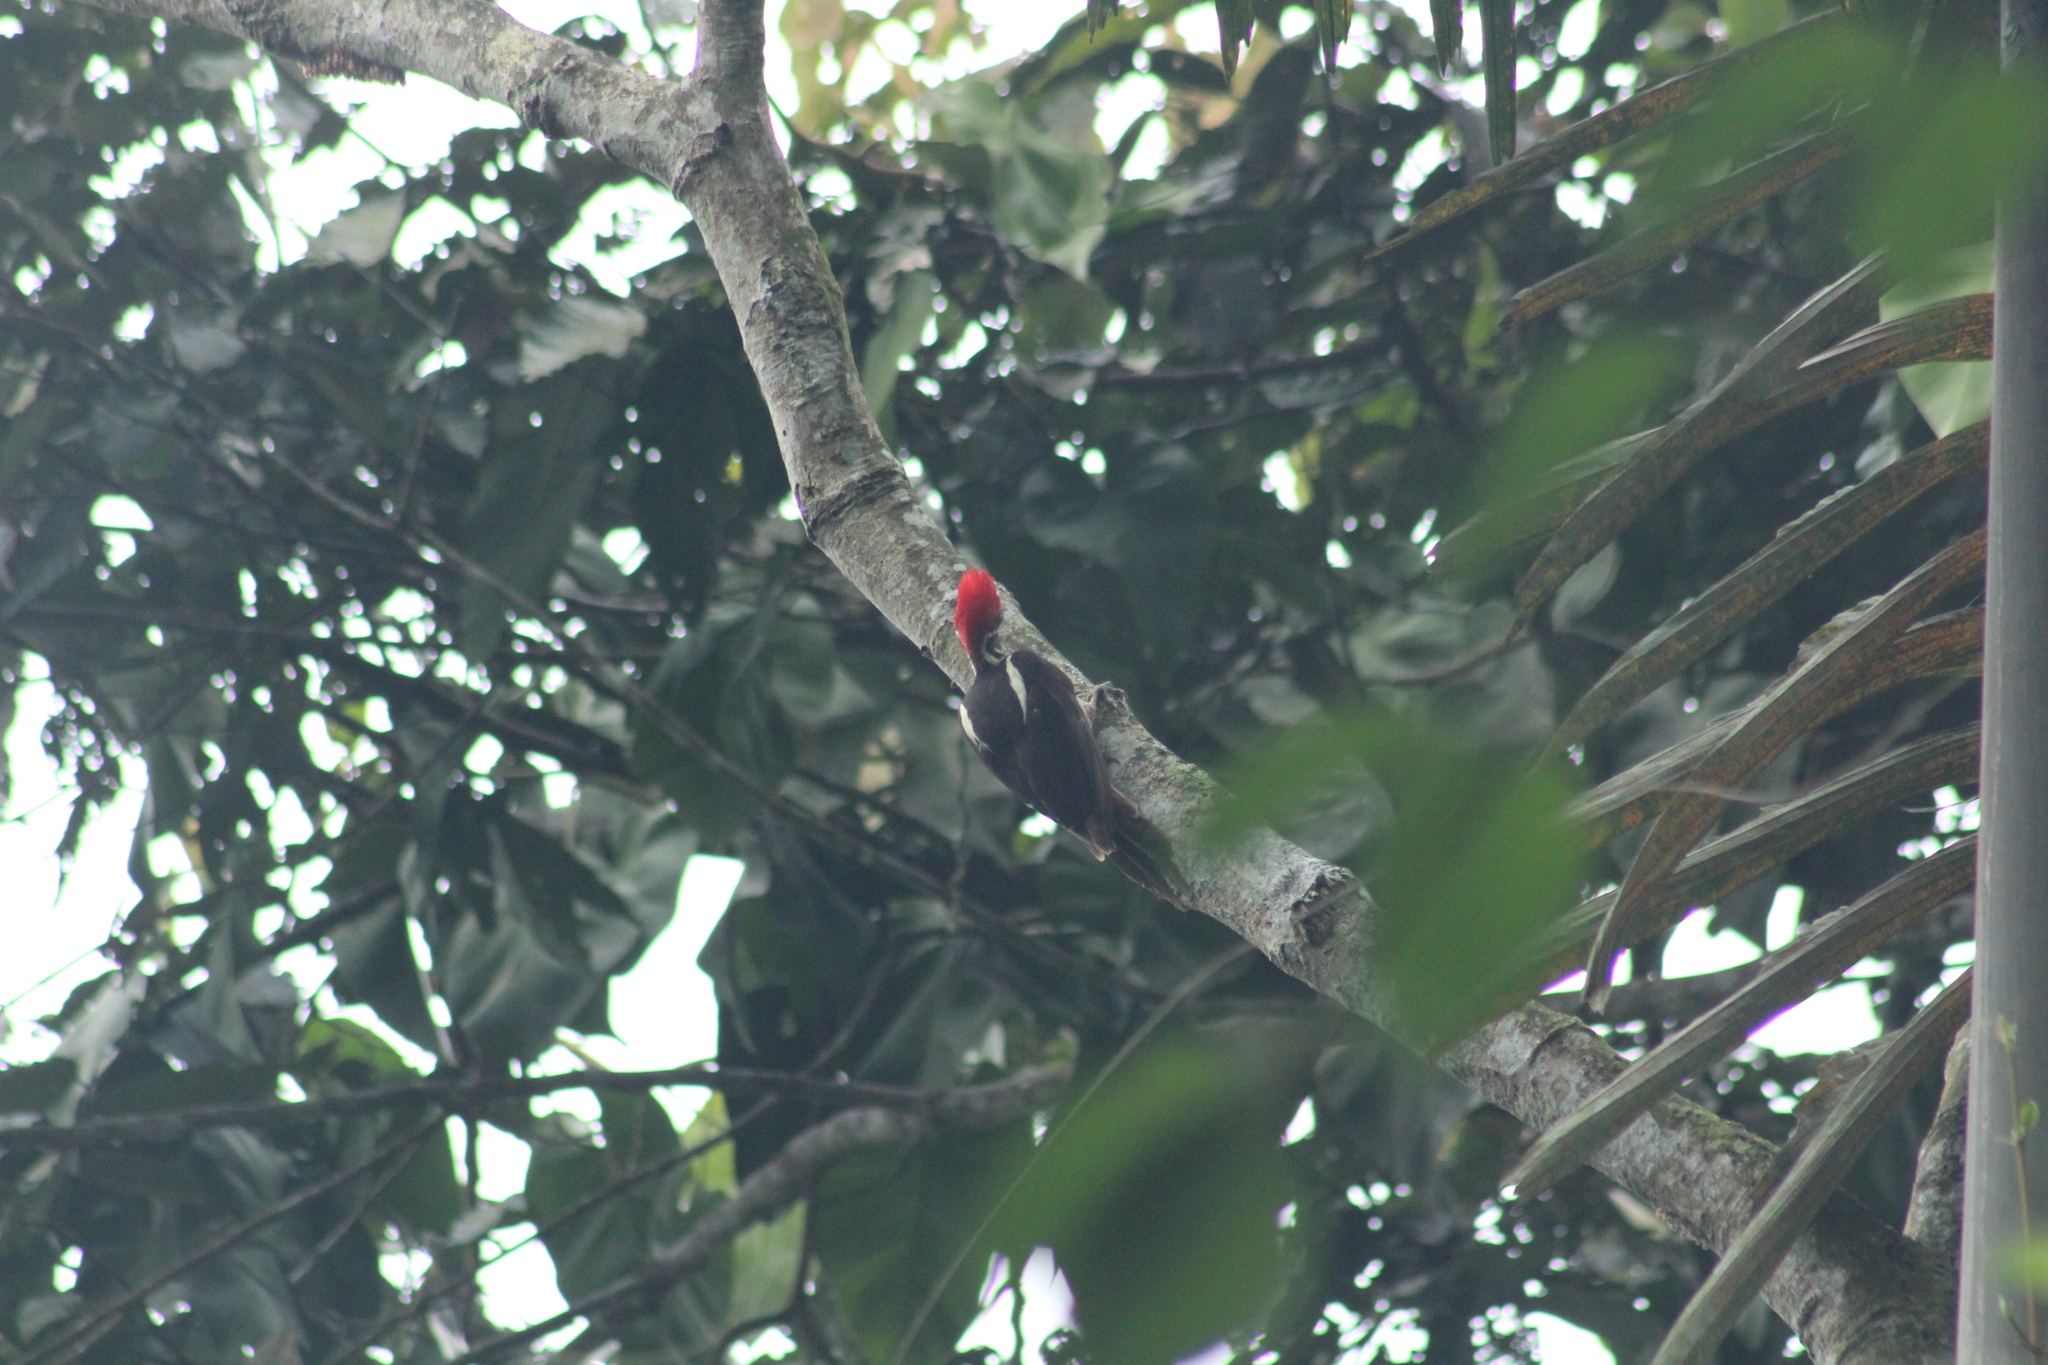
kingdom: Animalia
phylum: Chordata
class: Aves
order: Piciformes
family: Picidae
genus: Dryocopus
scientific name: Dryocopus lineatus
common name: Lineated woodpecker
